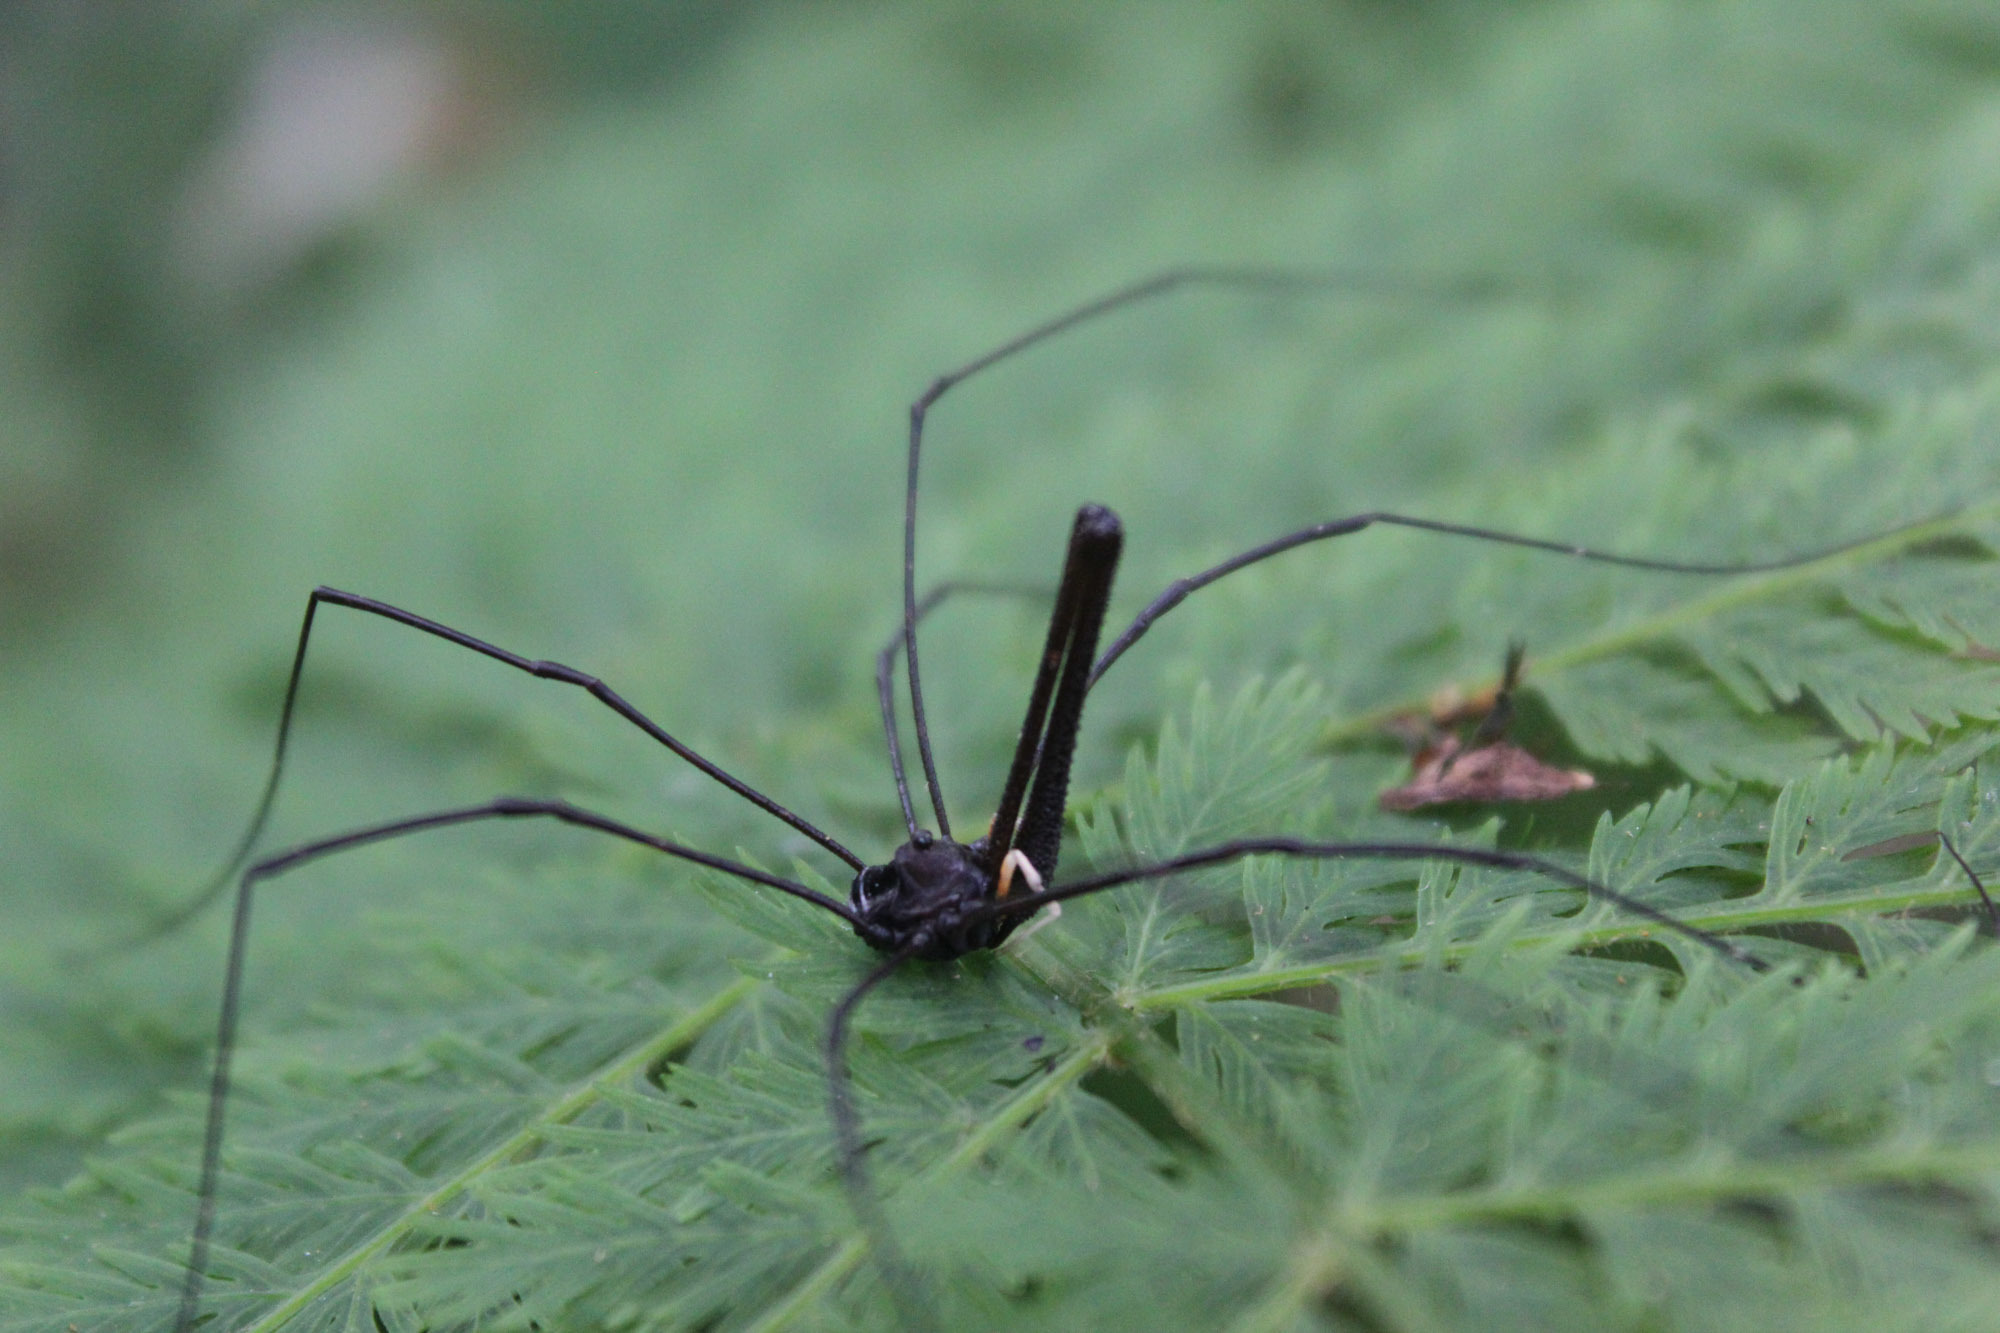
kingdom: Animalia
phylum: Arthropoda
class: Arachnida
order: Opiliones
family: Neopilionidae
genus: Pantopsalis
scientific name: Pantopsalis cheliferoides
